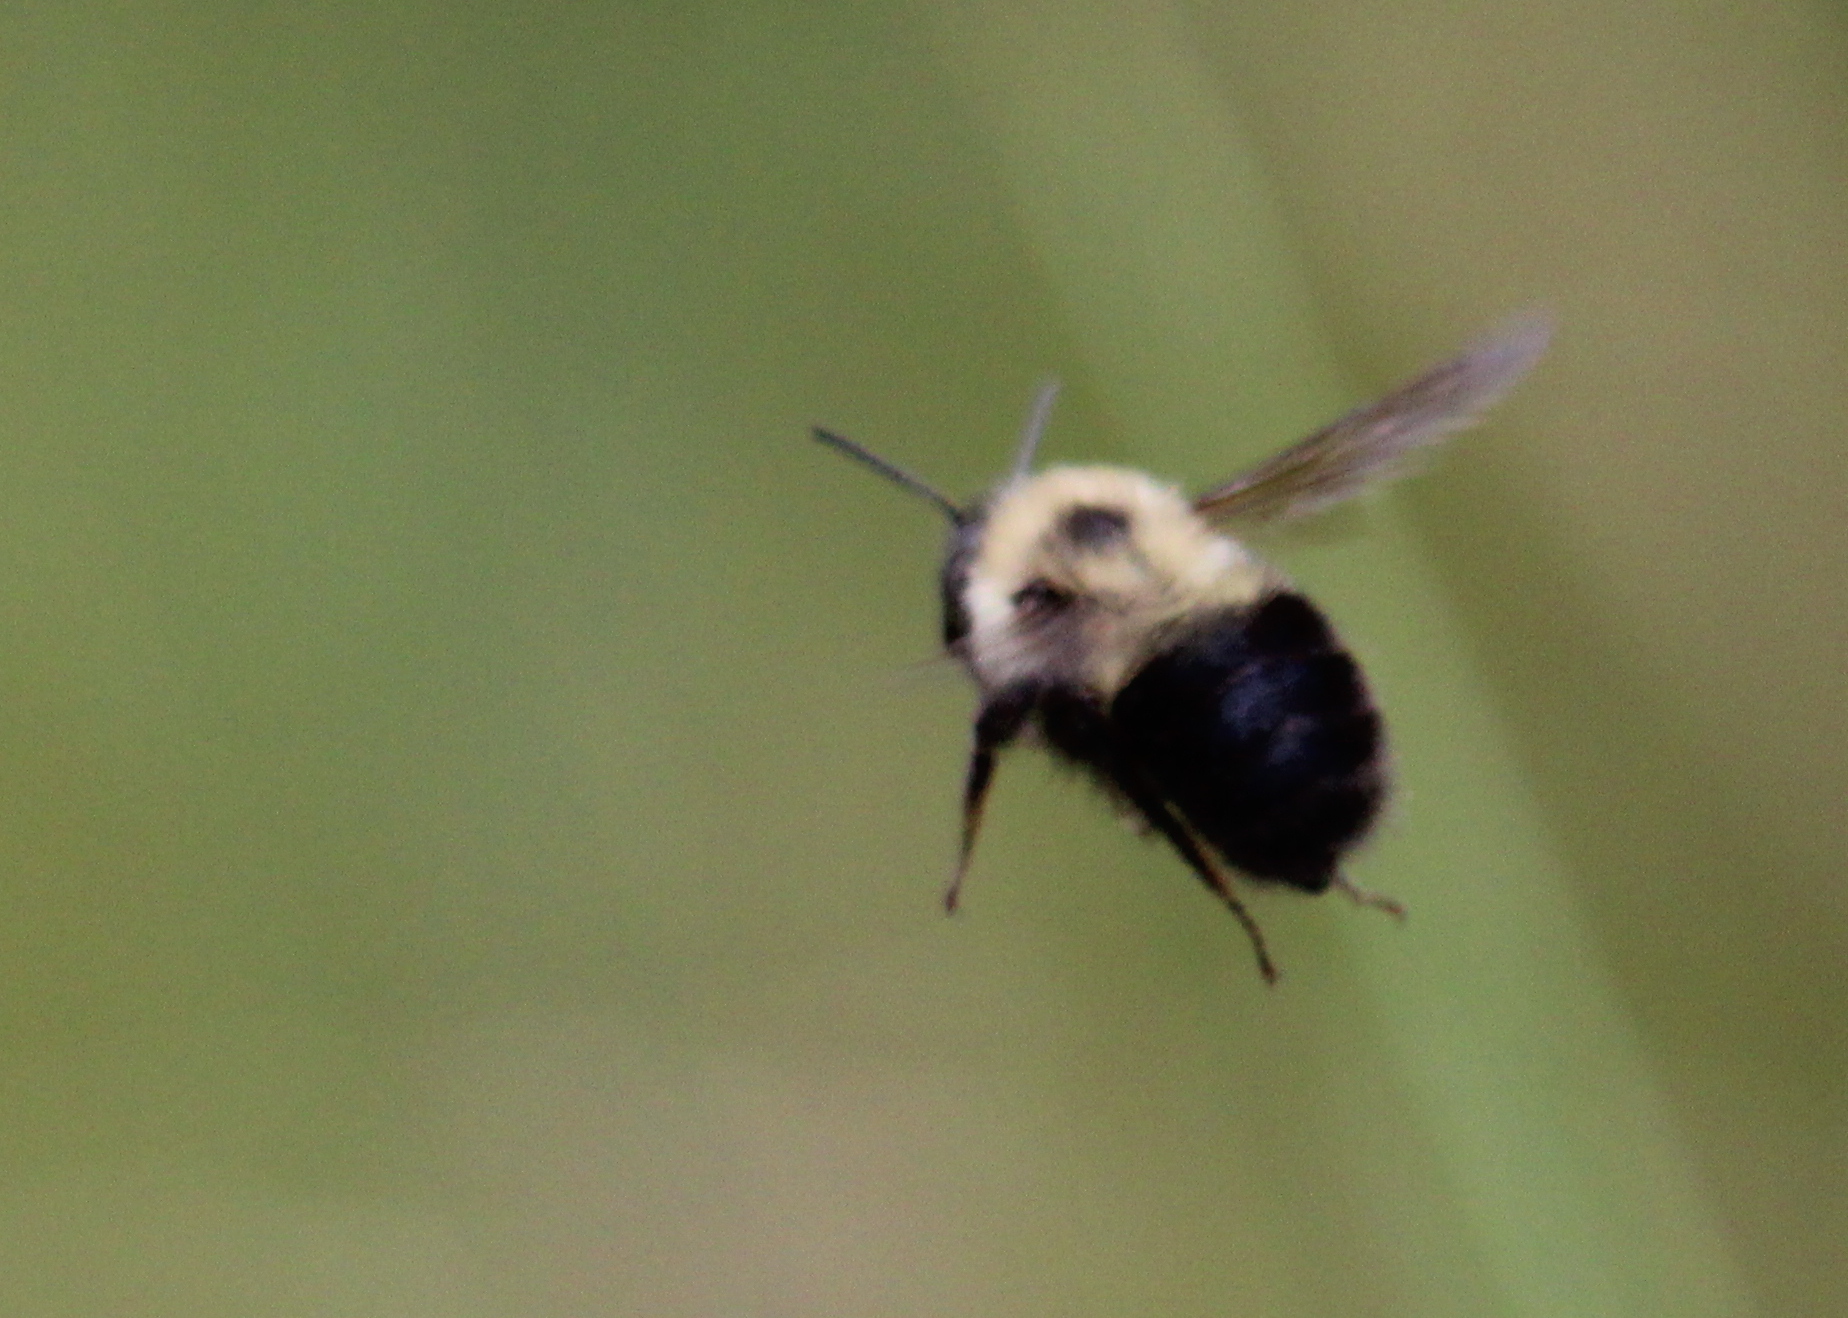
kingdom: Animalia
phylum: Arthropoda
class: Insecta
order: Hymenoptera
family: Apidae
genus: Bombus
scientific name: Bombus bimaculatus
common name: Two-spotted bumble bee
